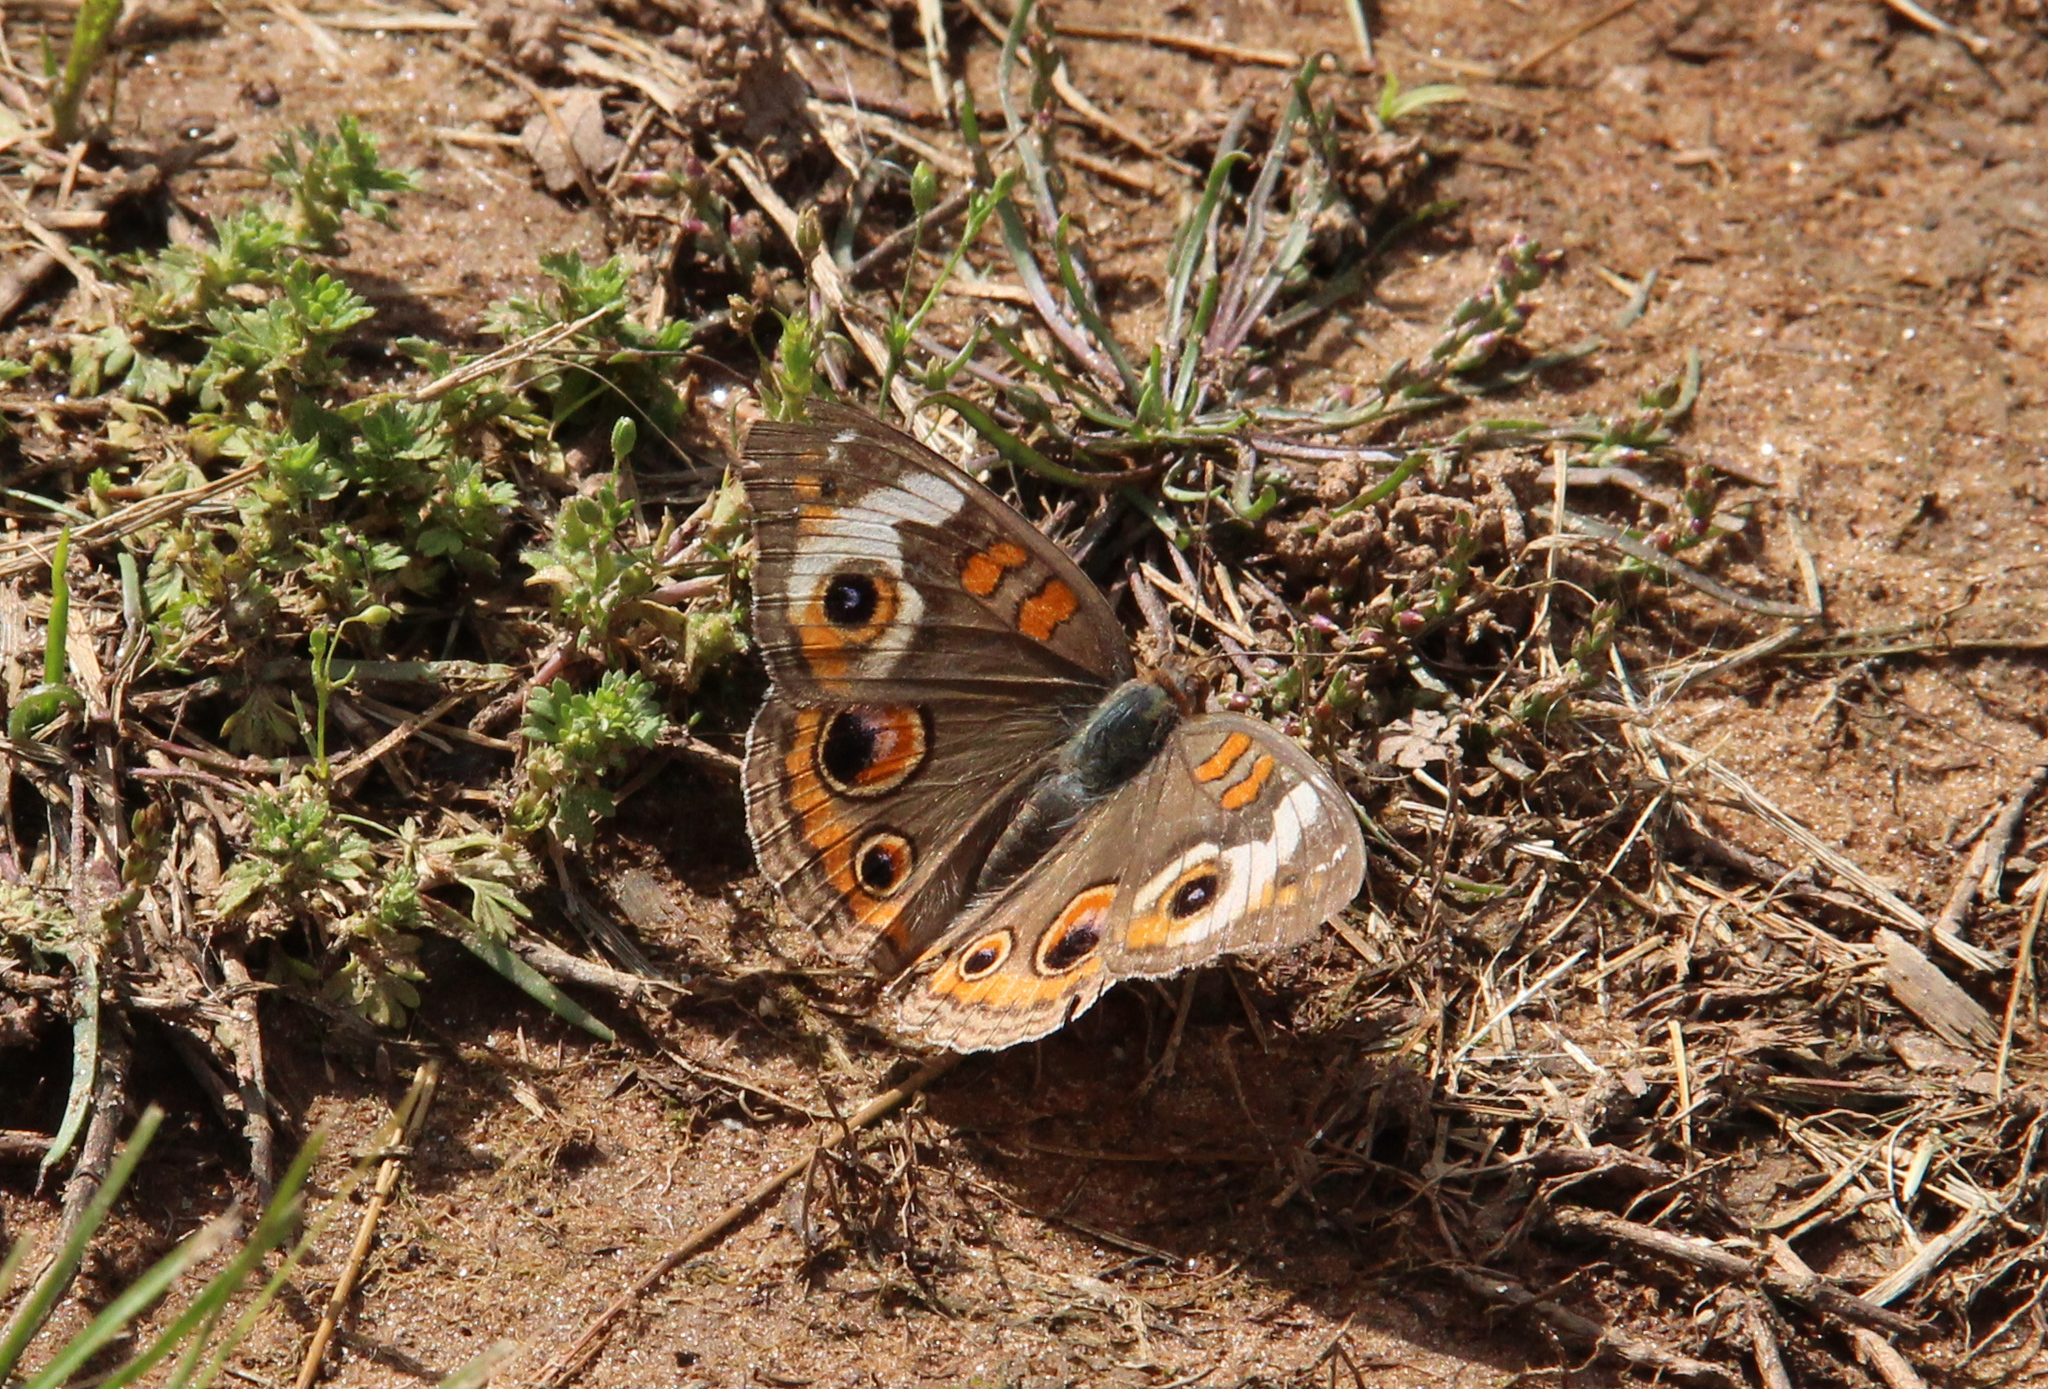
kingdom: Animalia
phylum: Arthropoda
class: Insecta
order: Lepidoptera
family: Nymphalidae
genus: Junonia
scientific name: Junonia coenia
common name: Common buckeye
